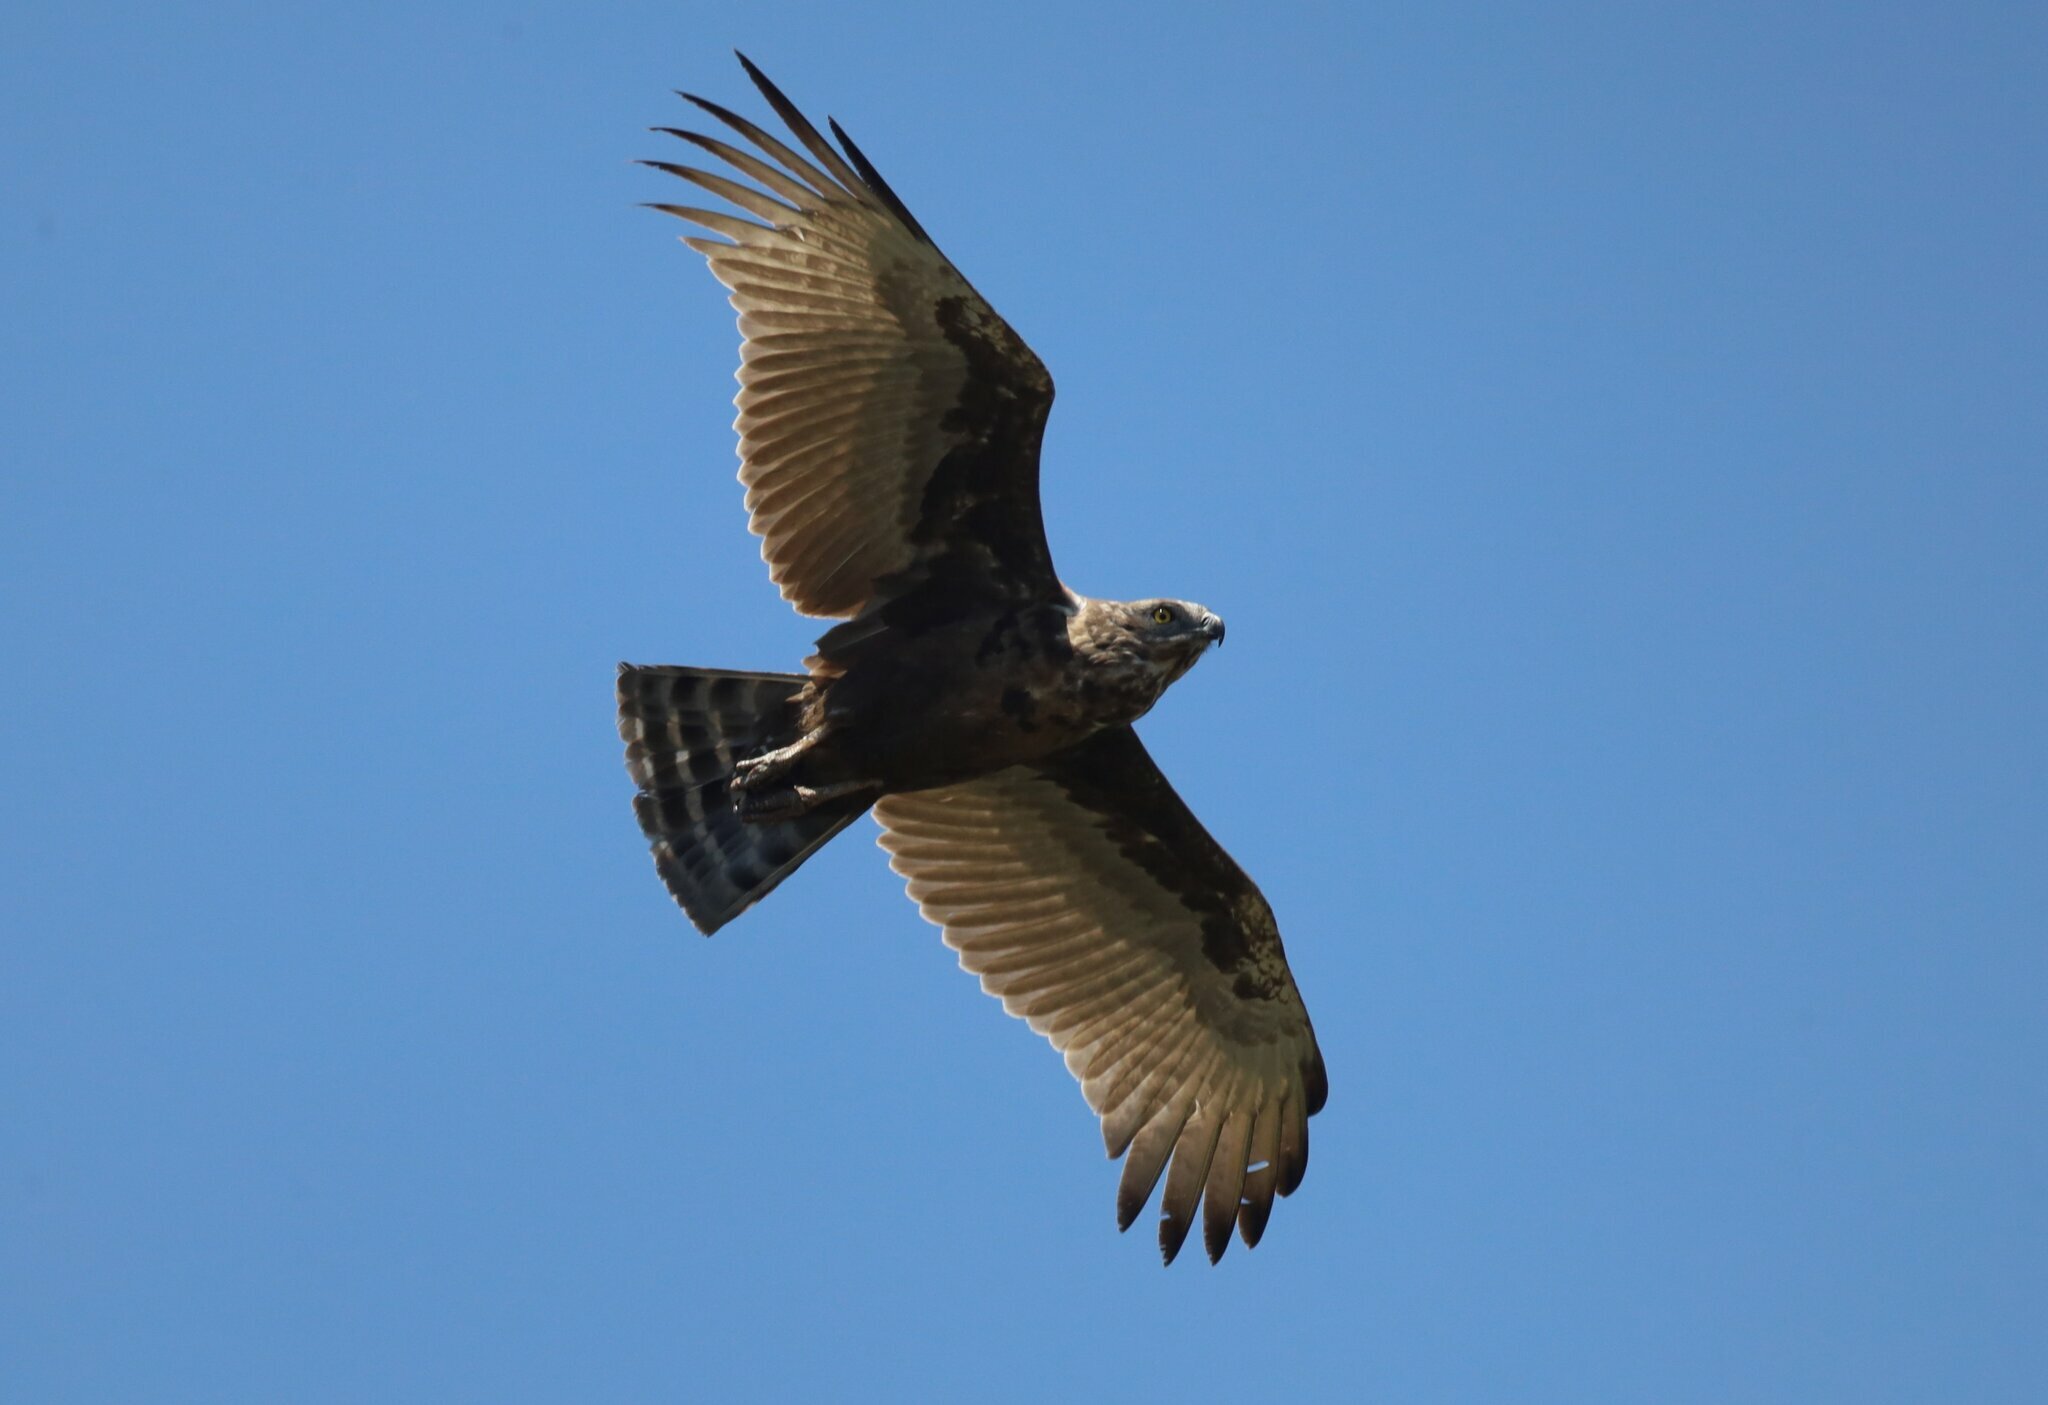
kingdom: Animalia
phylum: Chordata
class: Aves
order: Accipitriformes
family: Accipitridae
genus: Circaetus
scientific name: Circaetus cinereus
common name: Brown snake eagle
